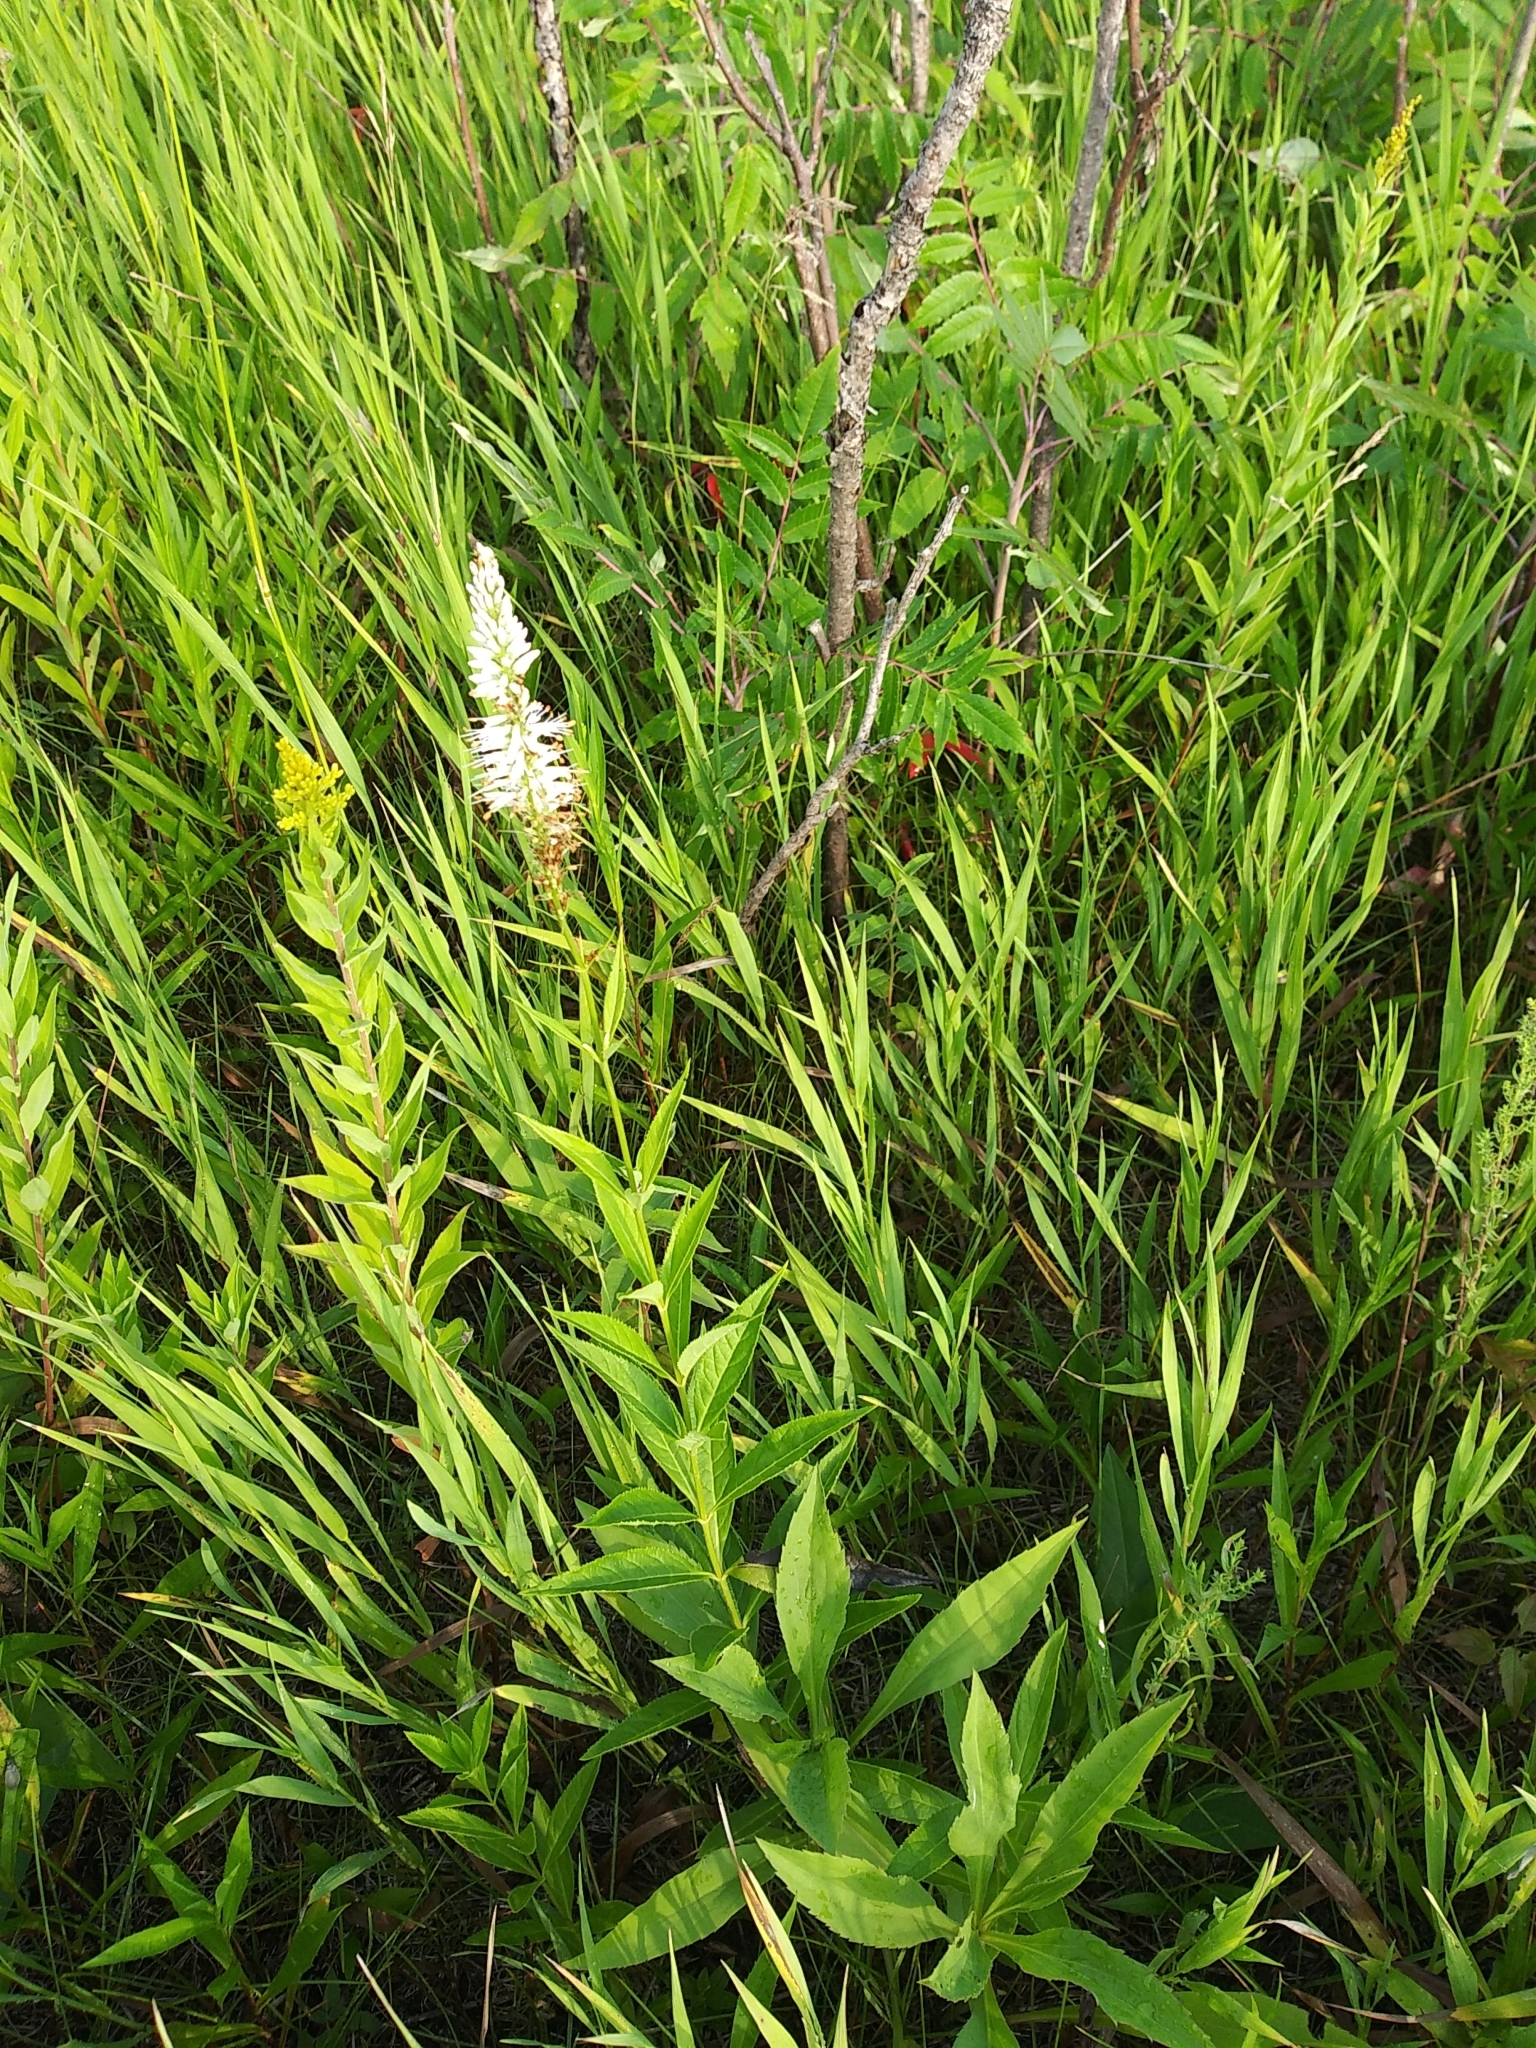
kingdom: Plantae
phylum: Tracheophyta
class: Magnoliopsida
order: Lamiales
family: Plantaginaceae
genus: Veronicastrum
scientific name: Veronicastrum virginicum
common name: Blackroot
